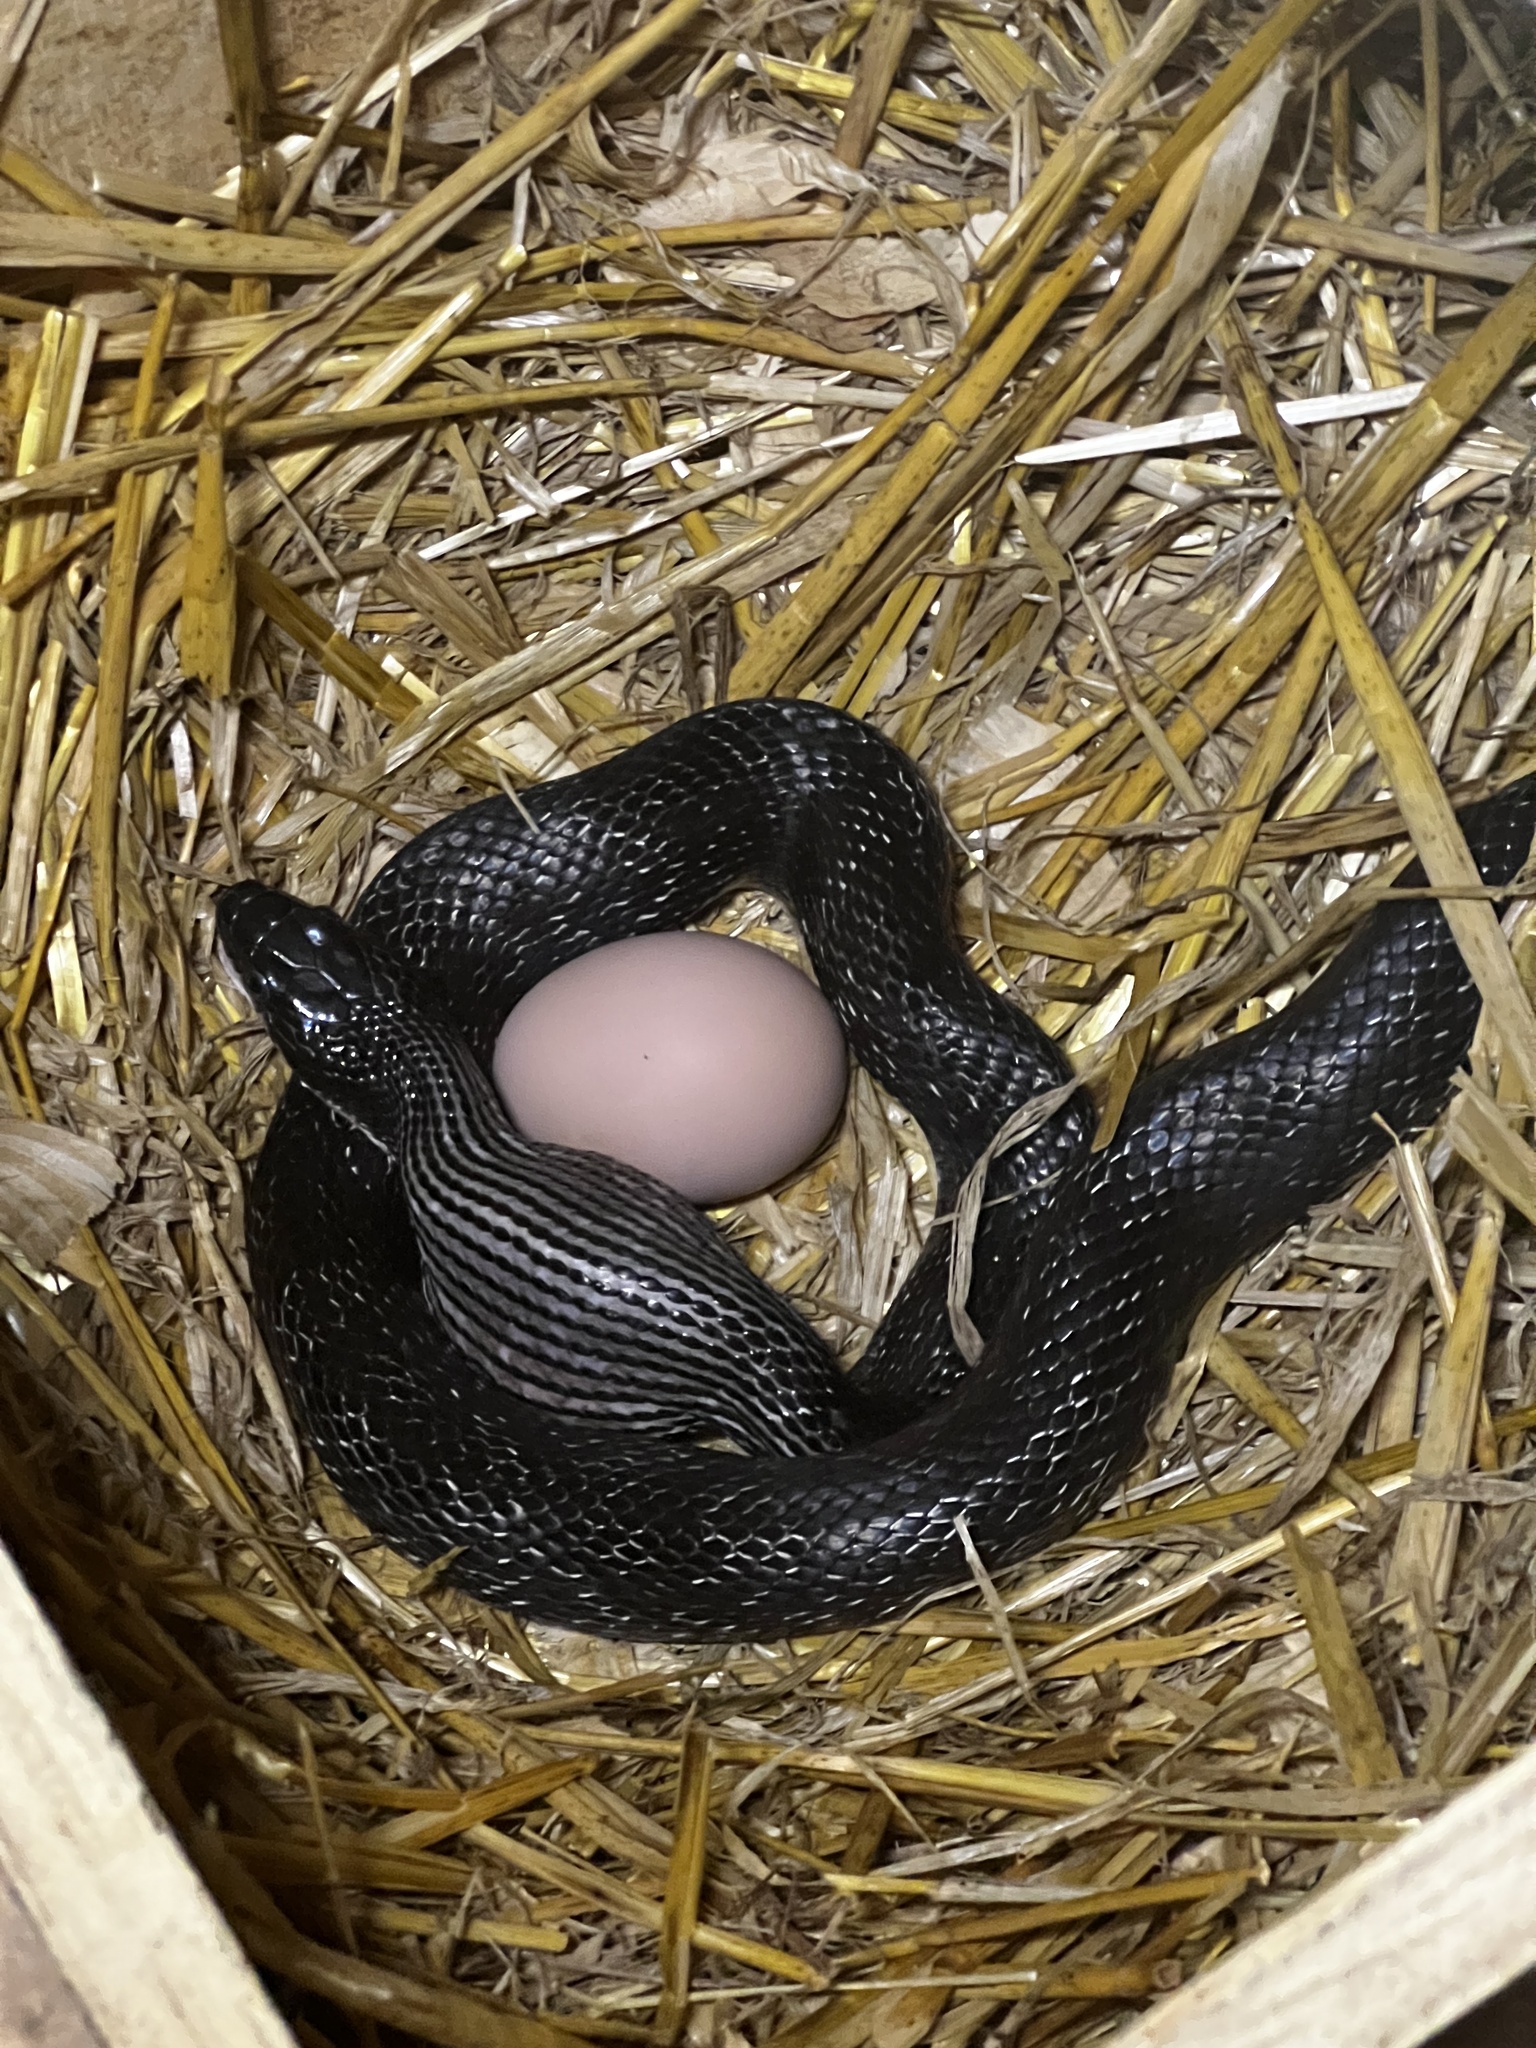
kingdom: Animalia
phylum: Chordata
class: Squamata
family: Colubridae
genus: Pantherophis
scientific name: Pantherophis
